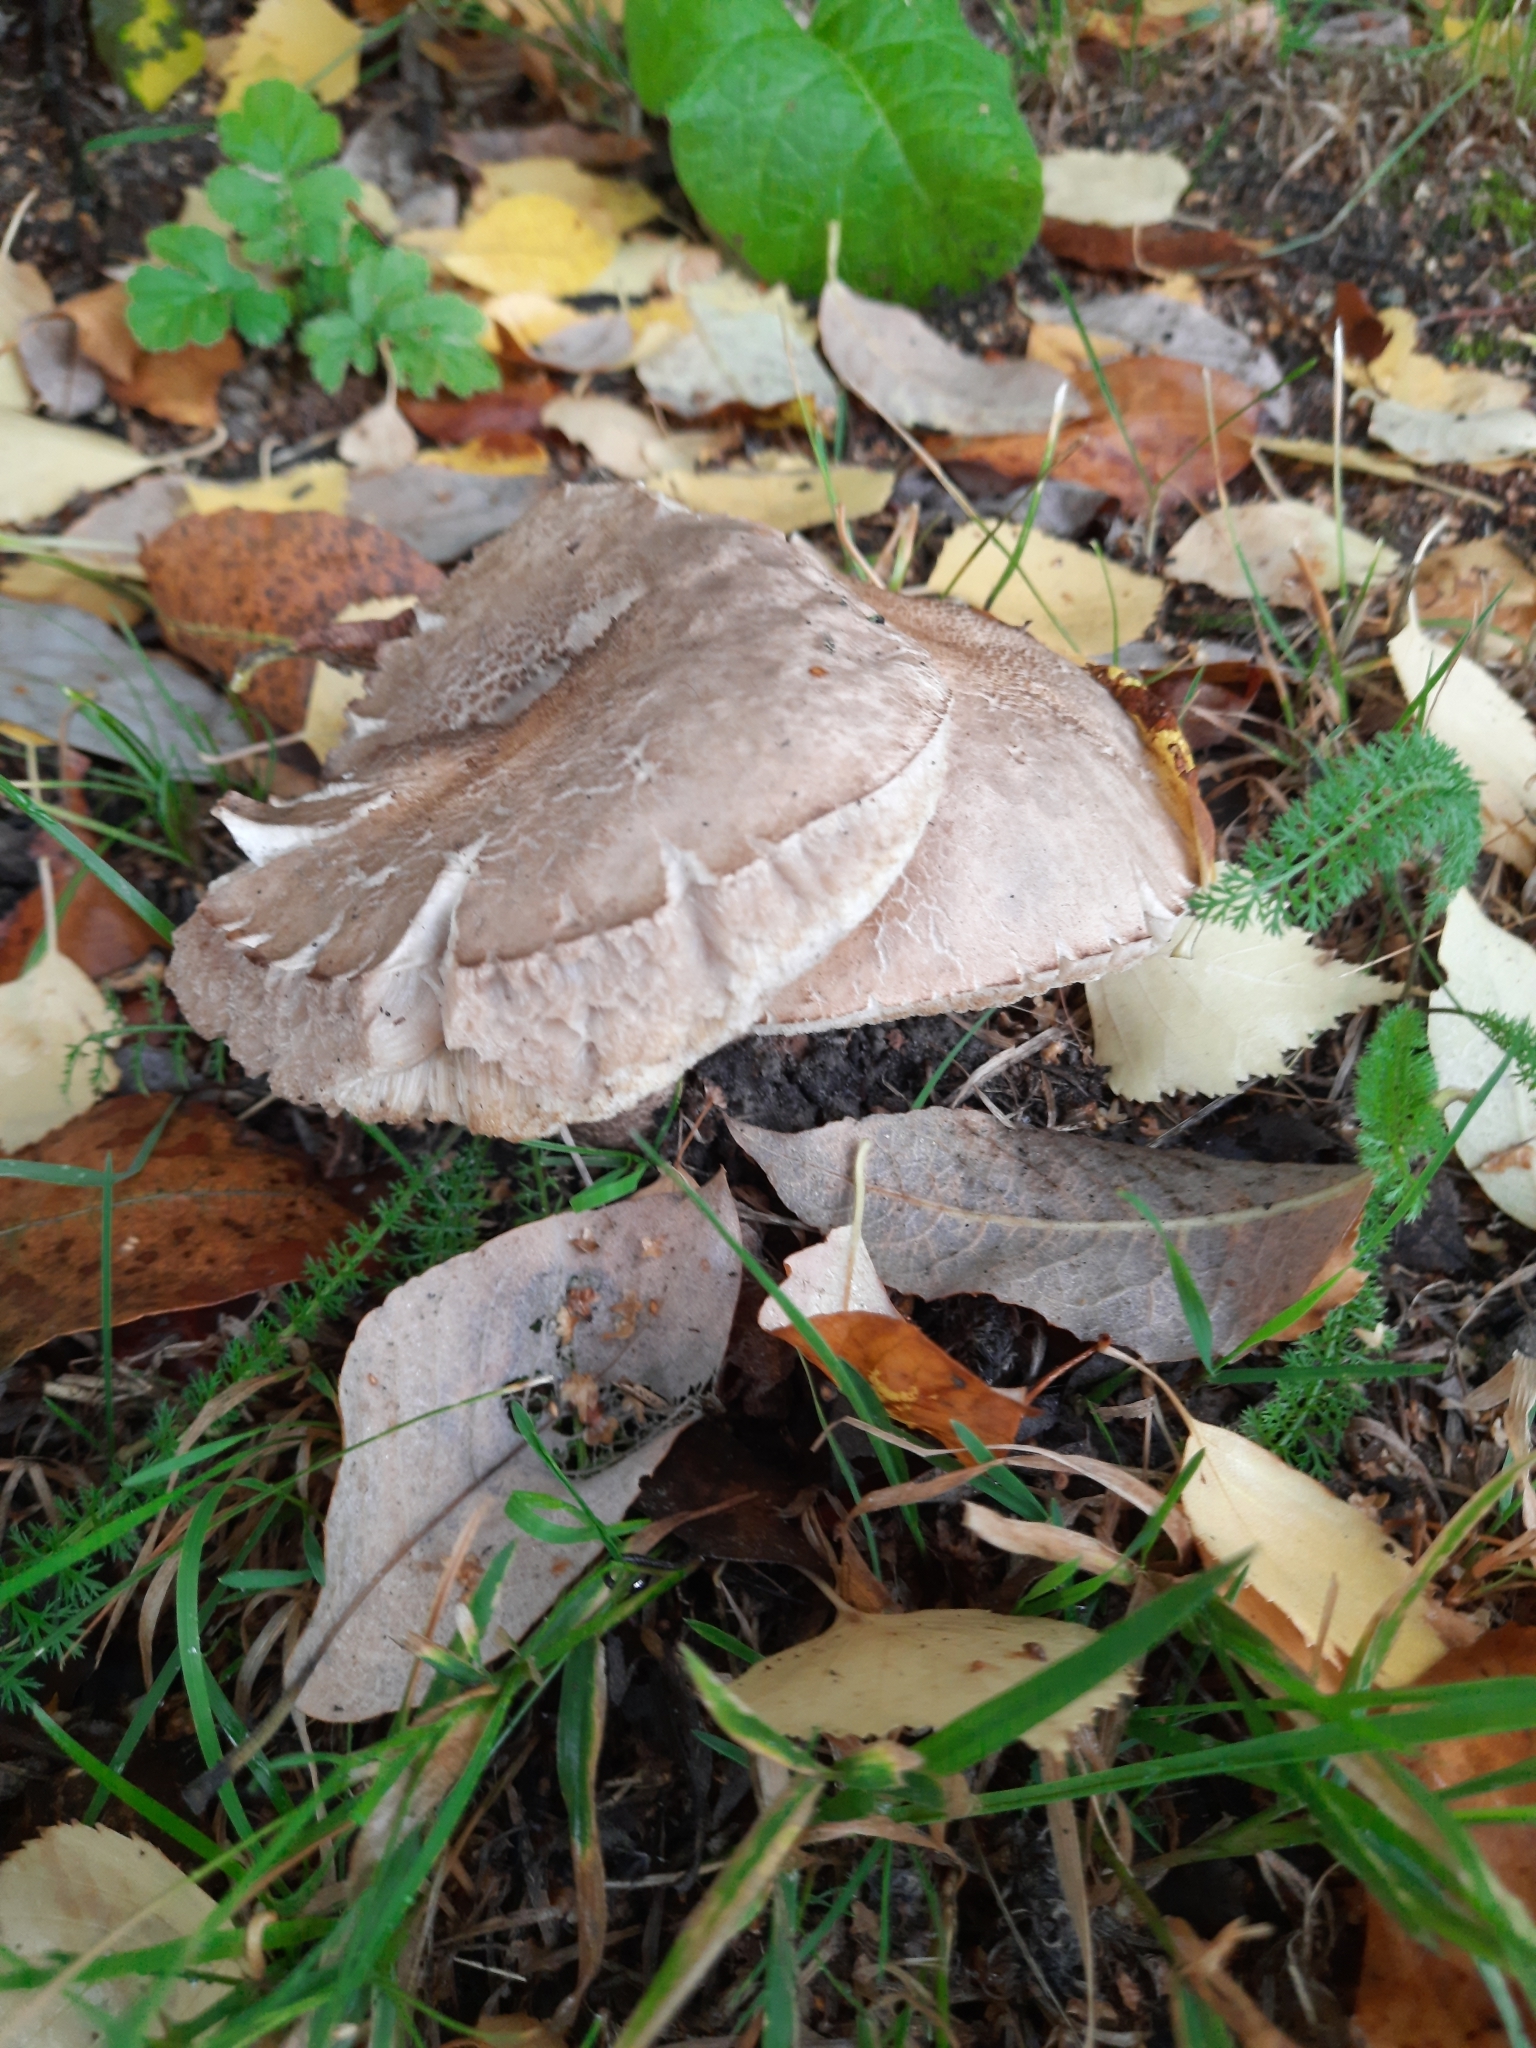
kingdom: Fungi
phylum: Basidiomycota
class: Agaricomycetes
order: Boletales
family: Boletaceae
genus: Leccinum
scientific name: Leccinum scabrum
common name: Blushing bolete
